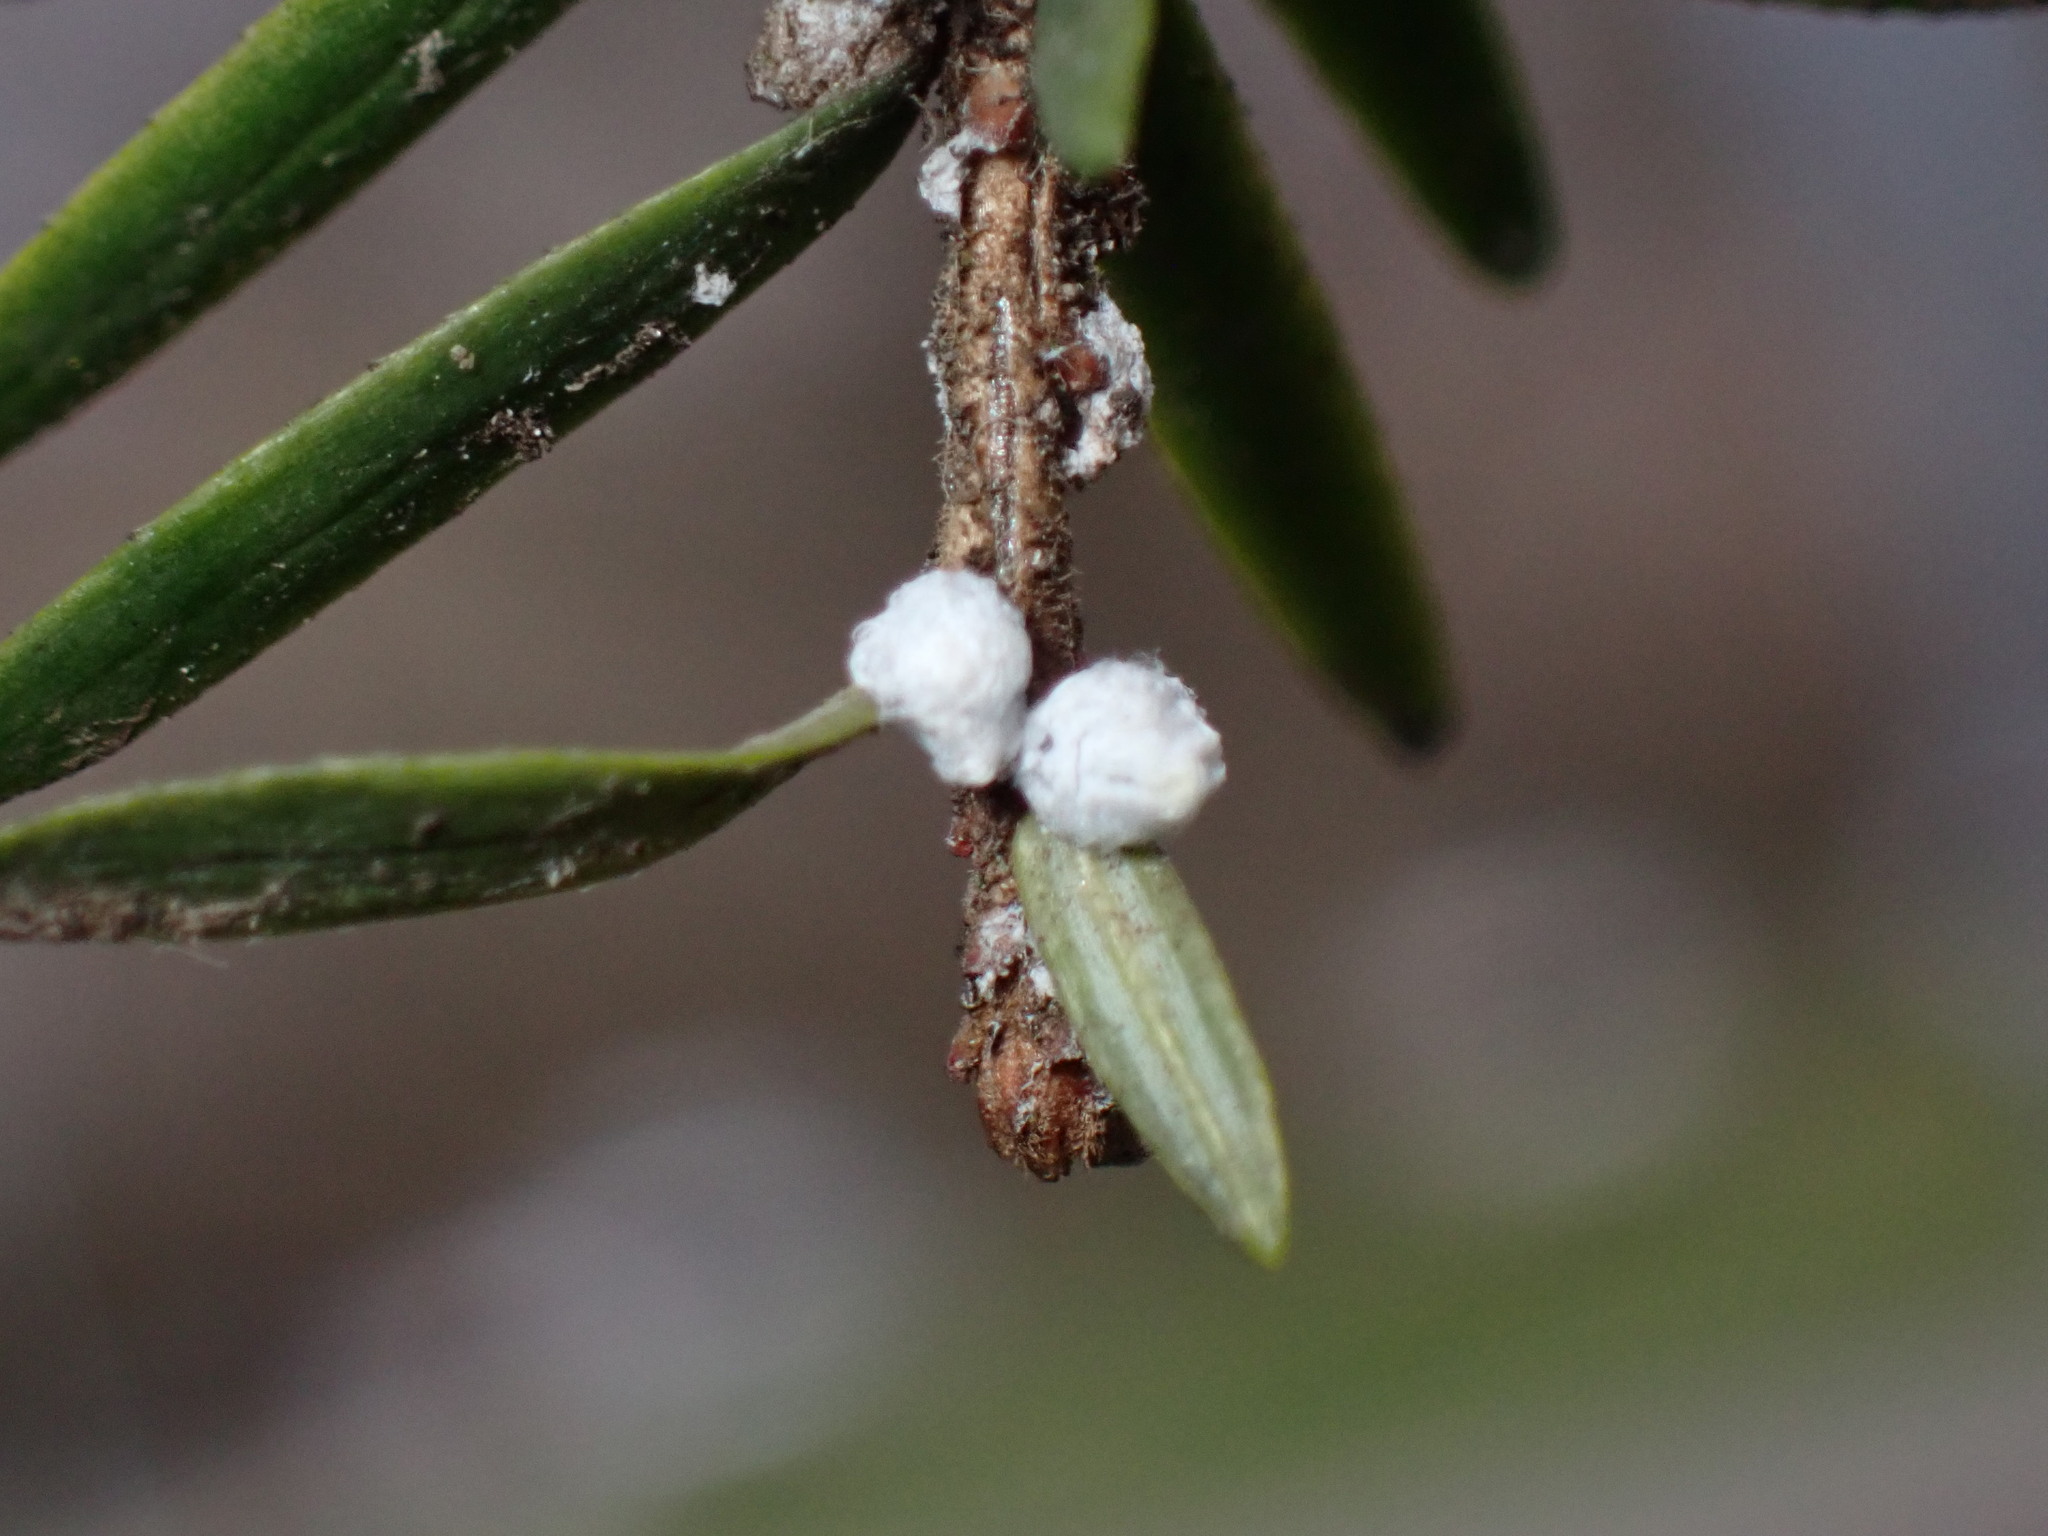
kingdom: Animalia
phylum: Arthropoda
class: Insecta
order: Hemiptera
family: Adelgidae
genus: Adelges
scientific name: Adelges tsugae
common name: Hemlock woolly adelgid
